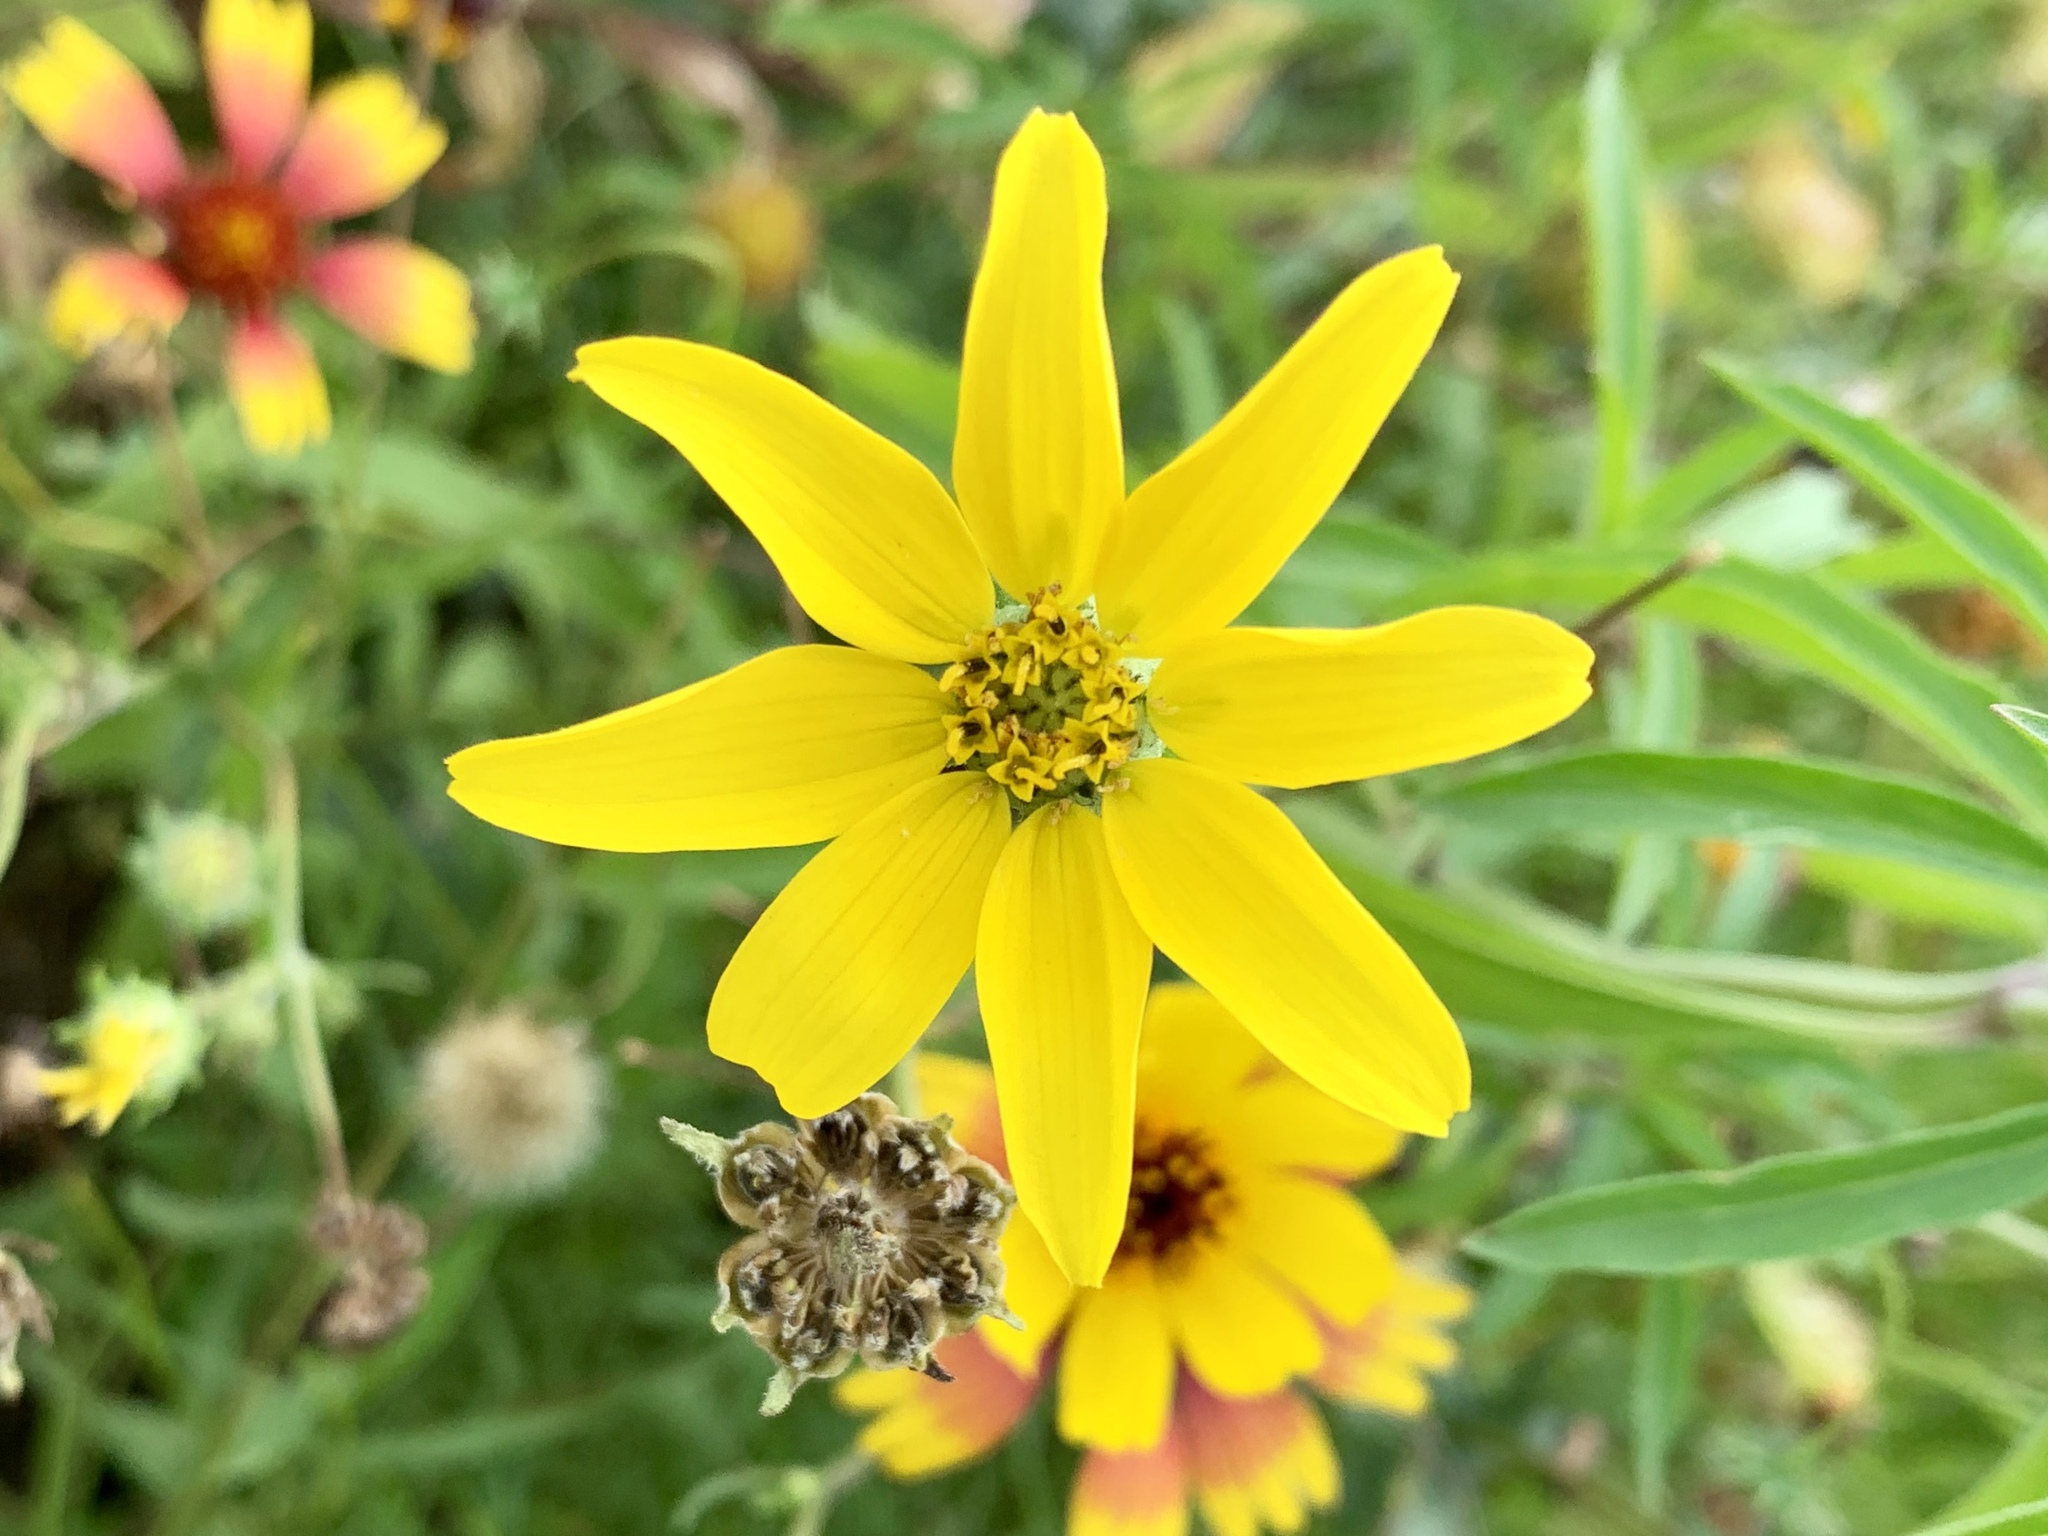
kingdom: Plantae
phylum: Tracheophyta
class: Magnoliopsida
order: Asterales
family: Asteraceae
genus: Engelmannia
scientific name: Engelmannia peristenia
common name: Engelmann's daisy
